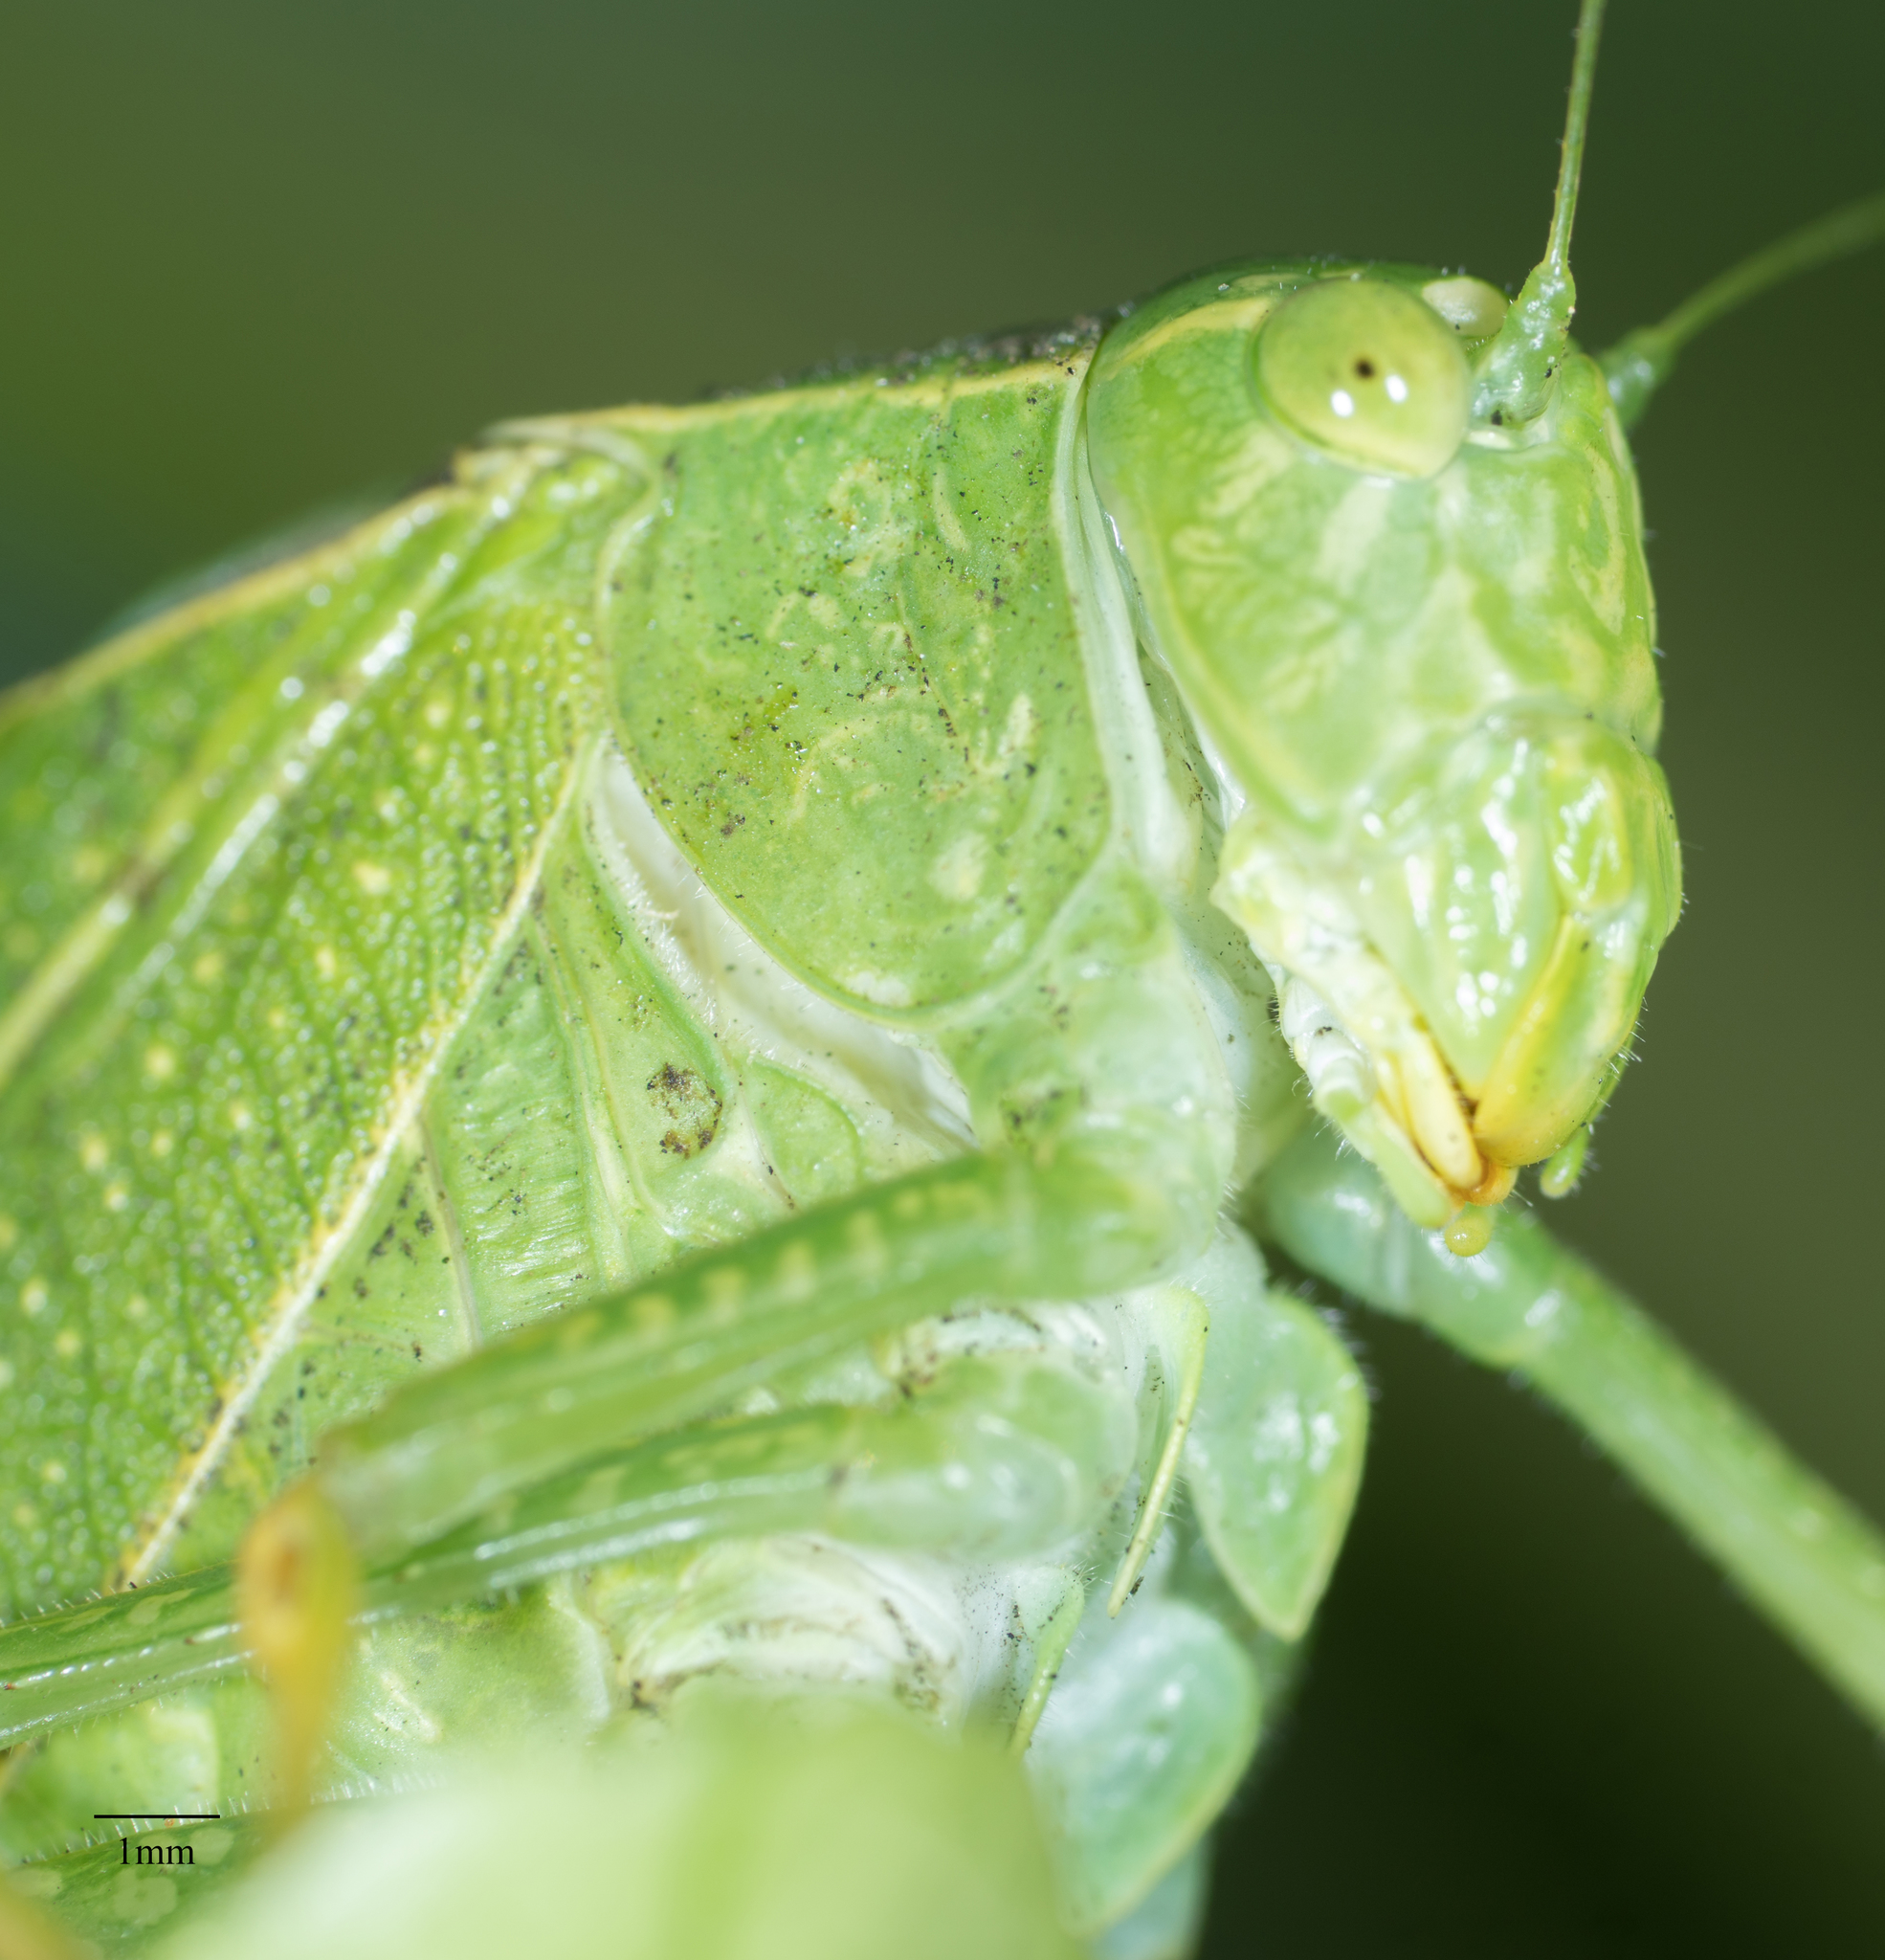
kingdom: Animalia
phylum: Arthropoda
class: Insecta
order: Orthoptera
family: Tettigoniidae
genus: Microcentrum
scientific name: Microcentrum
